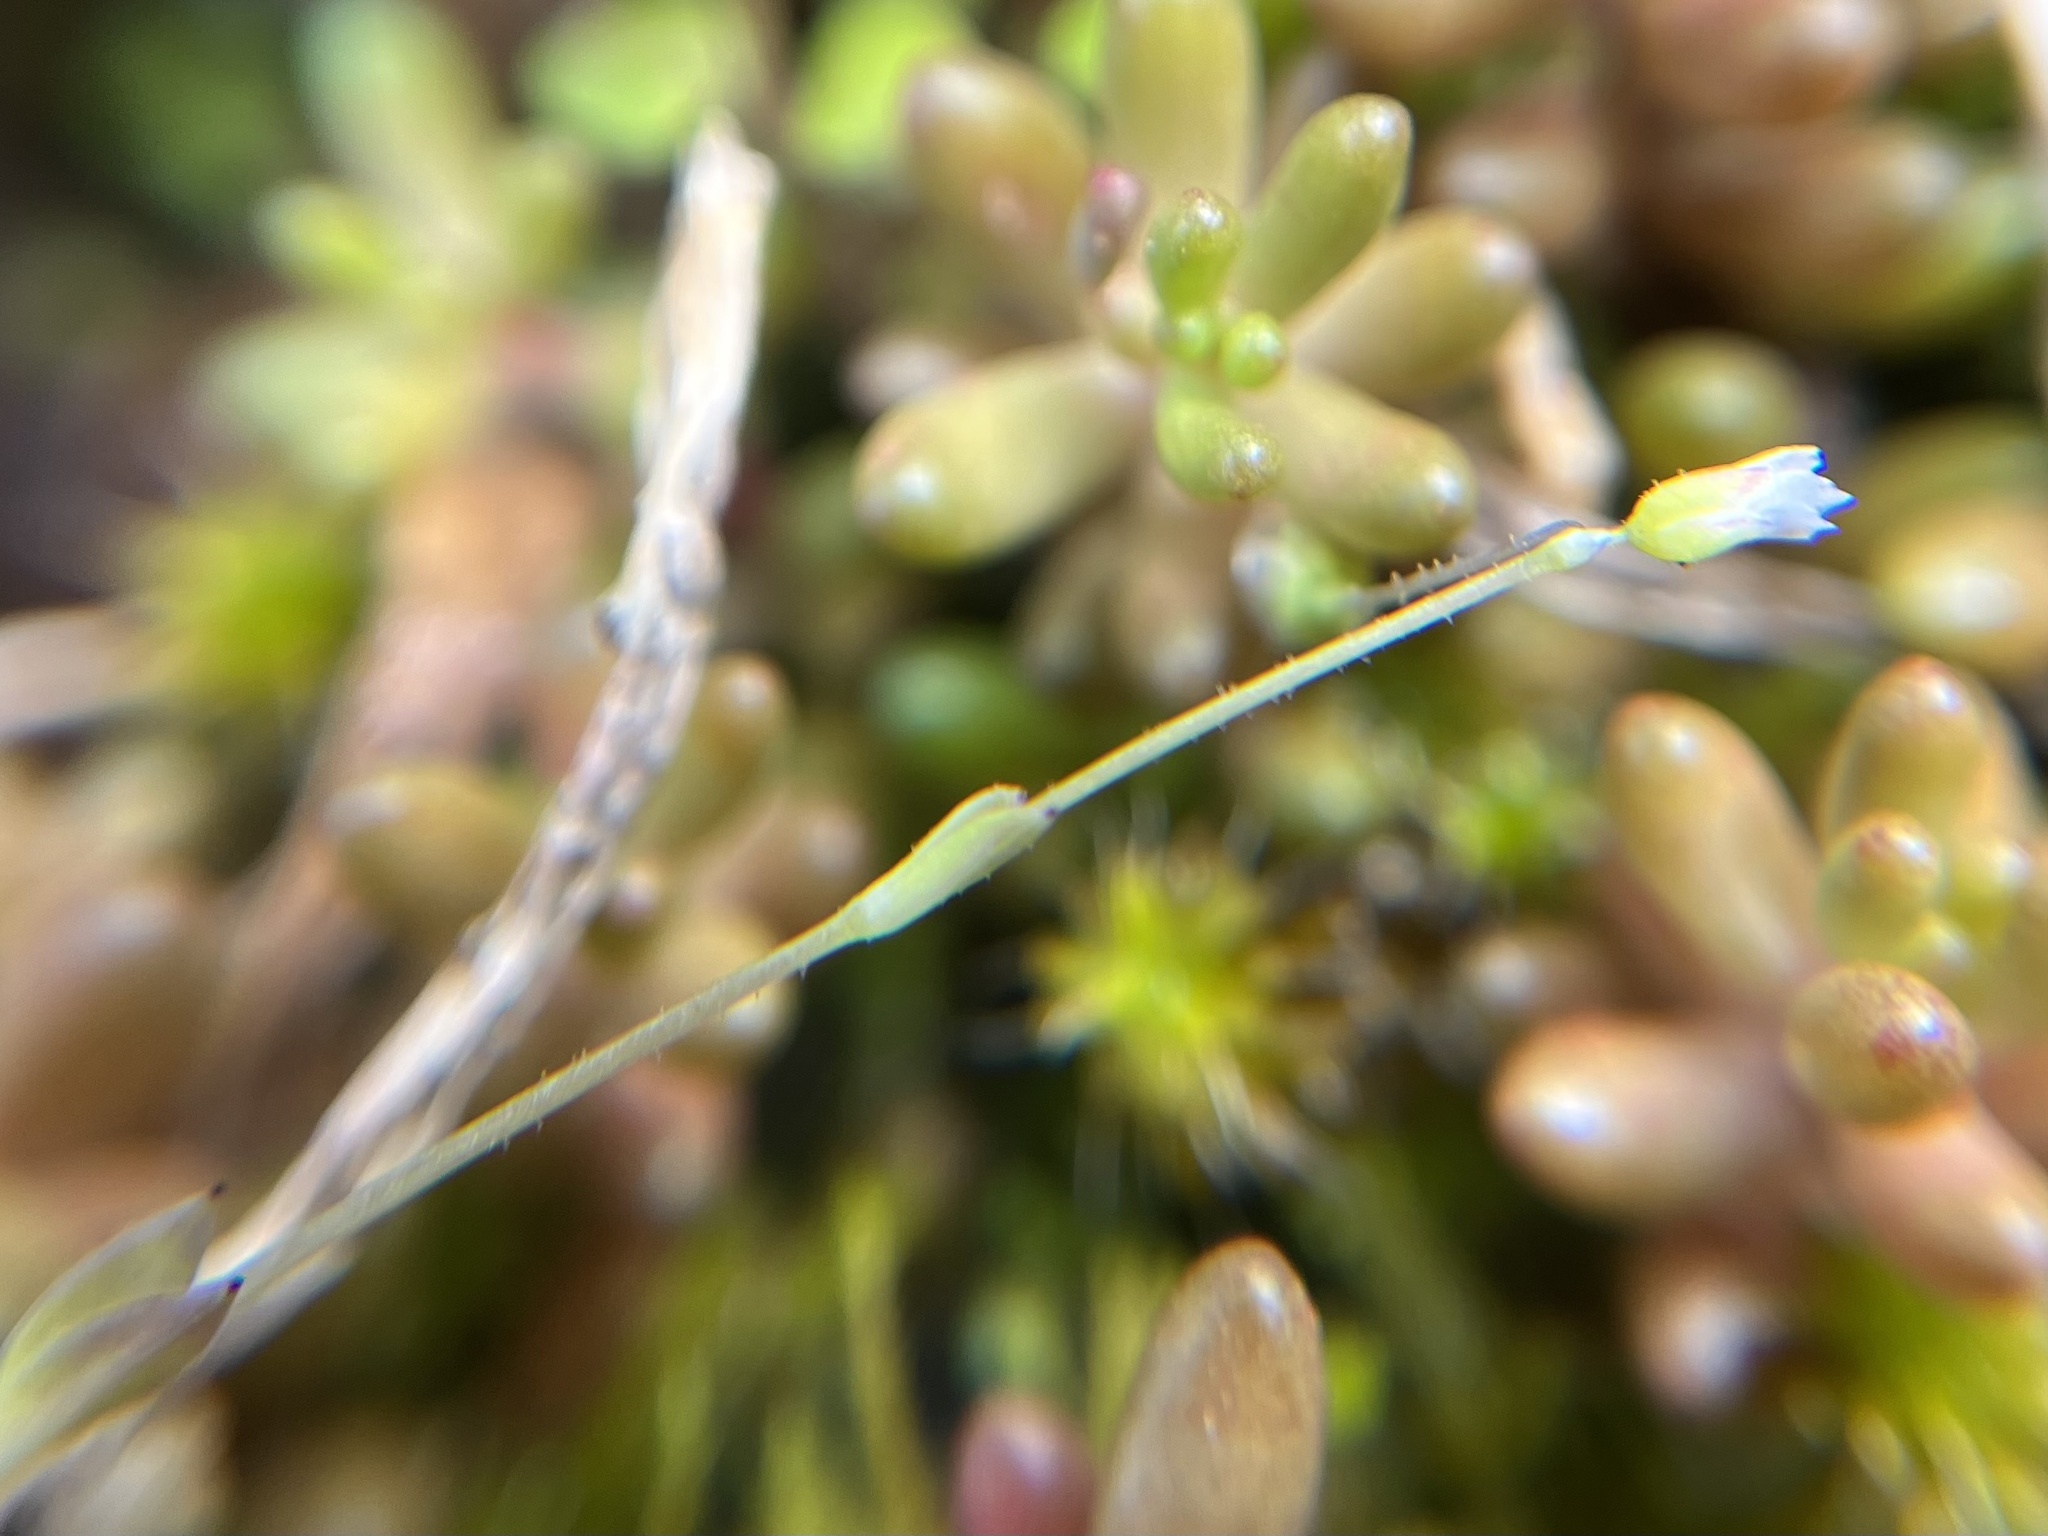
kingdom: Plantae
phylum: Tracheophyta
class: Magnoliopsida
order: Caryophyllales
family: Caryophyllaceae
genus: Holosteum
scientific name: Holosteum umbellatum
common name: Jagged chickweed
